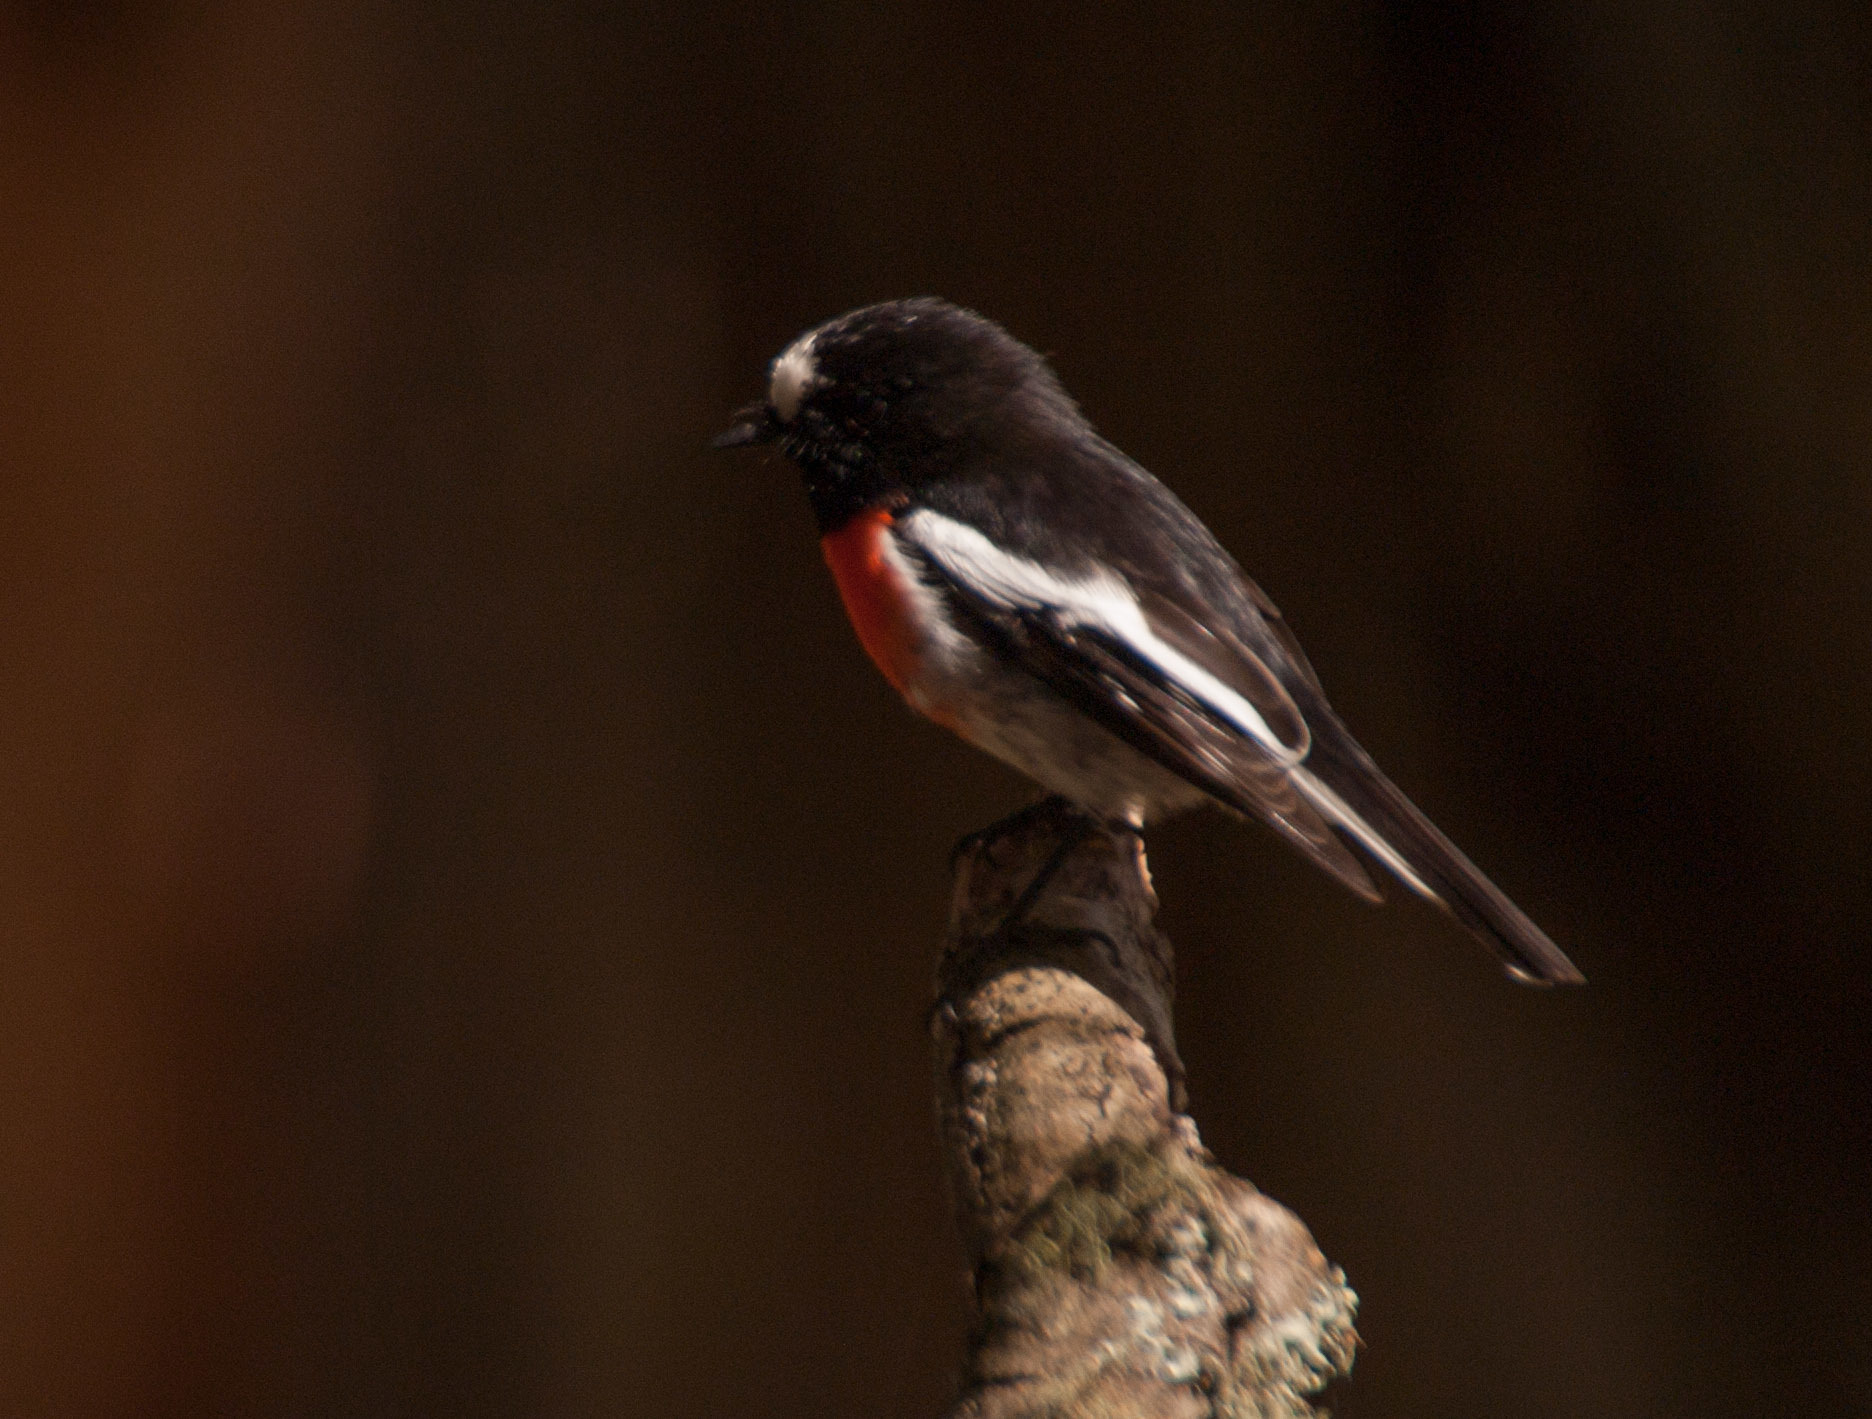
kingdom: Animalia
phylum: Chordata
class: Aves
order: Passeriformes
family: Petroicidae
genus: Petroica
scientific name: Petroica boodang
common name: Scarlet robin
